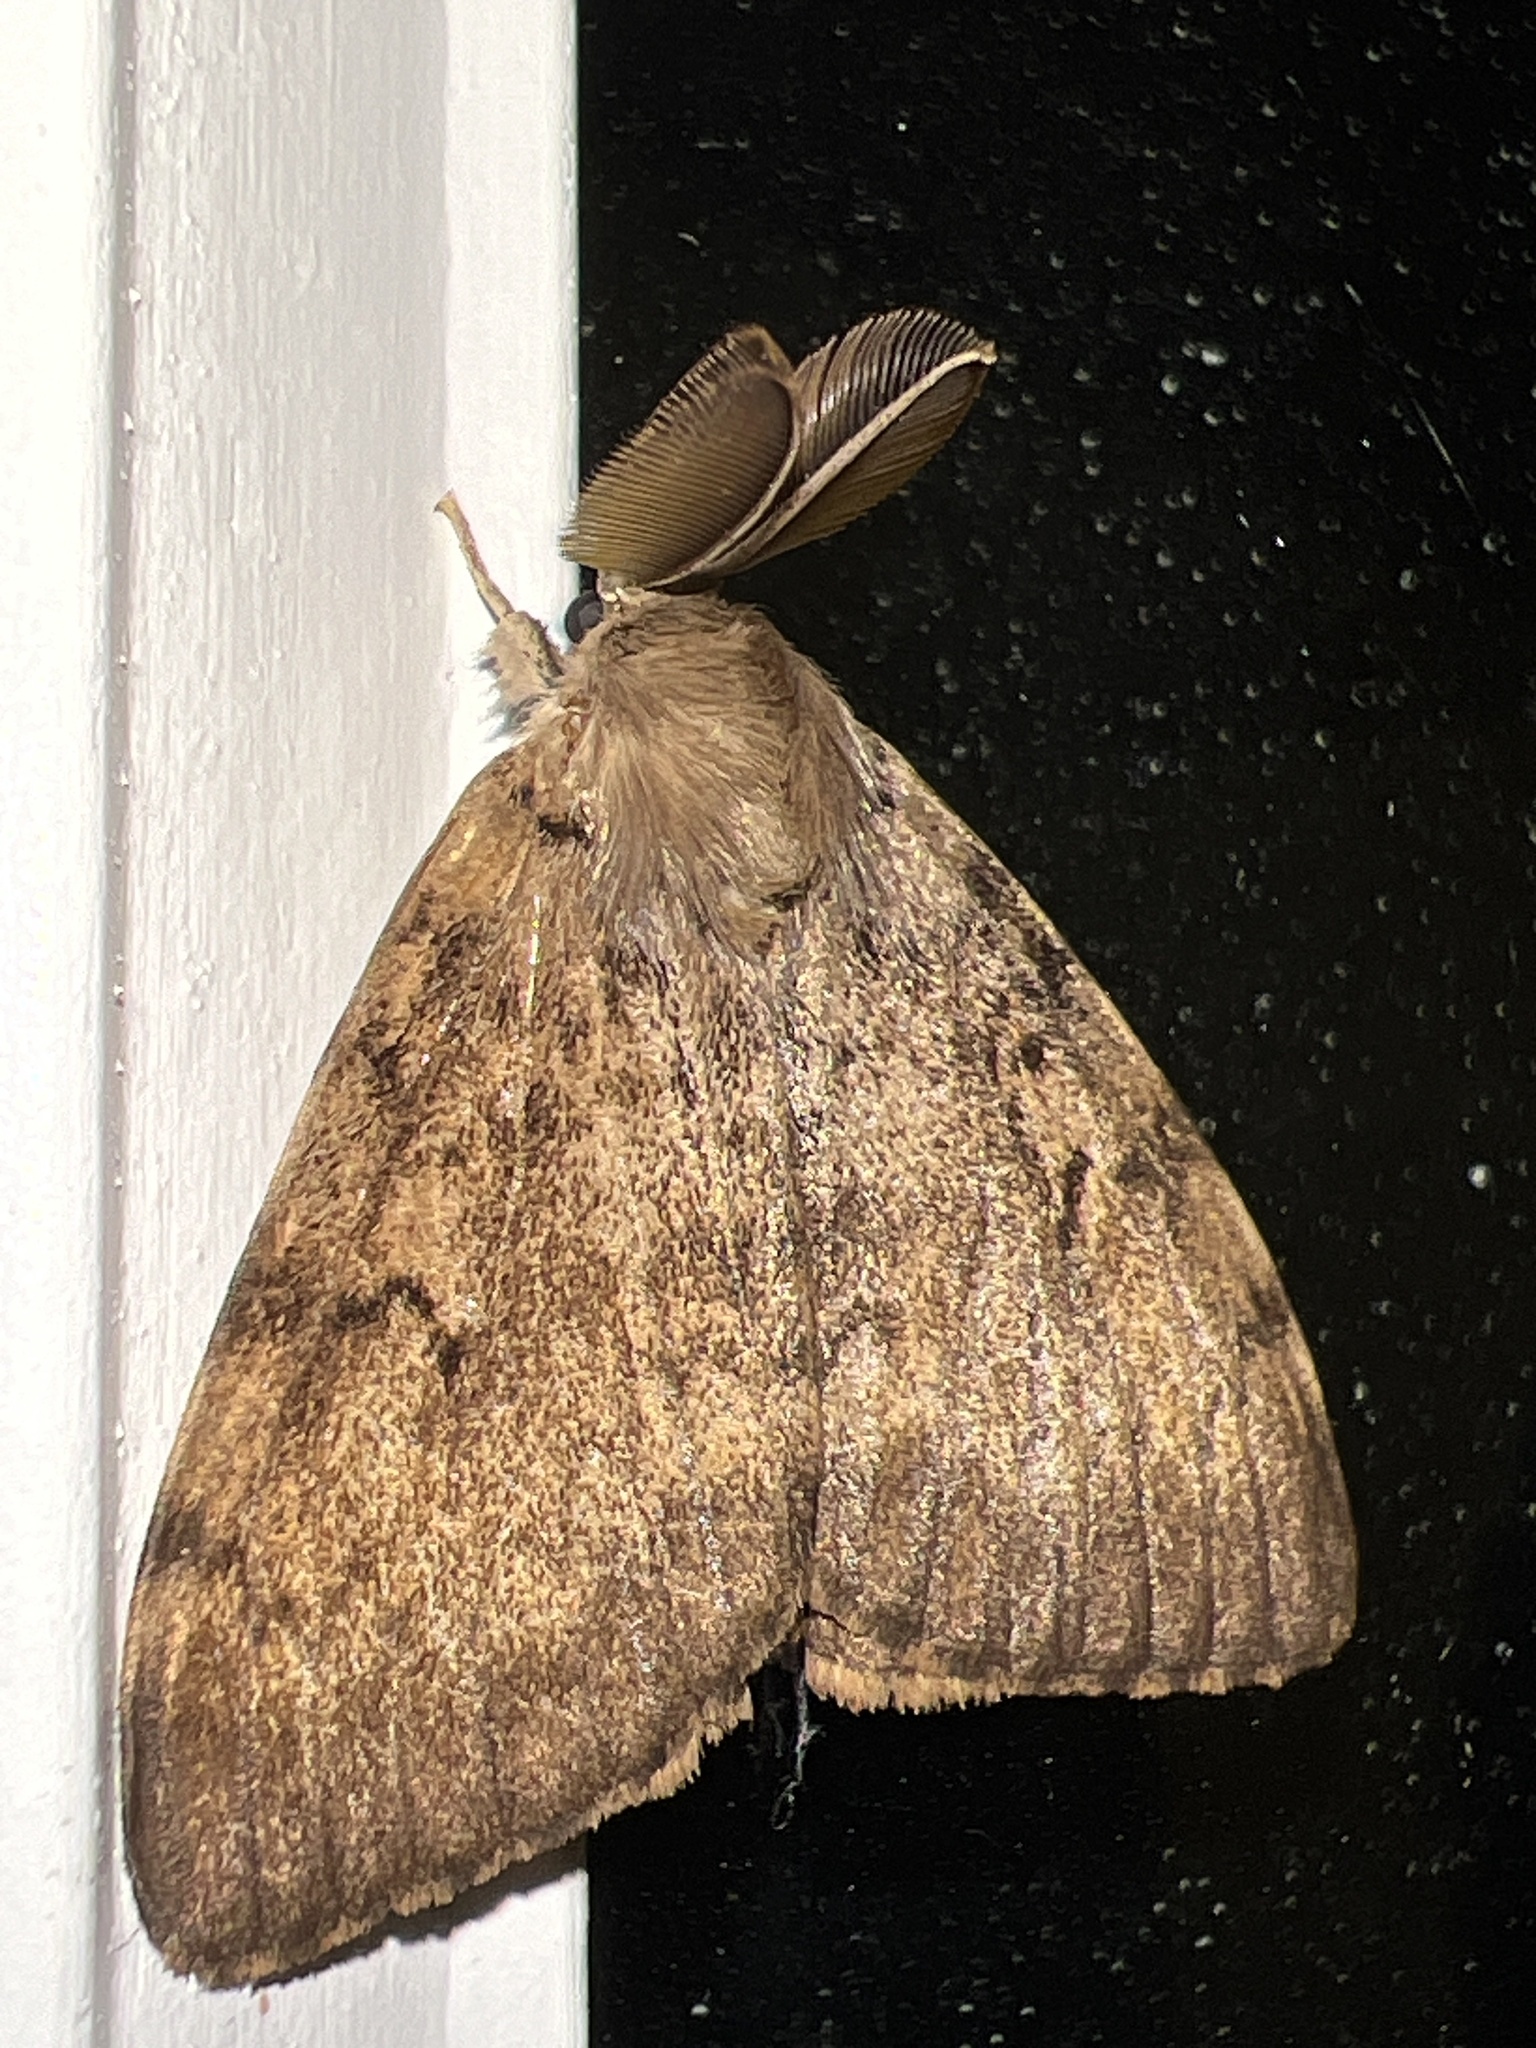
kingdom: Animalia
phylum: Arthropoda
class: Insecta
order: Lepidoptera
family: Erebidae
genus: Lymantria
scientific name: Lymantria dispar
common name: Gypsy moth
